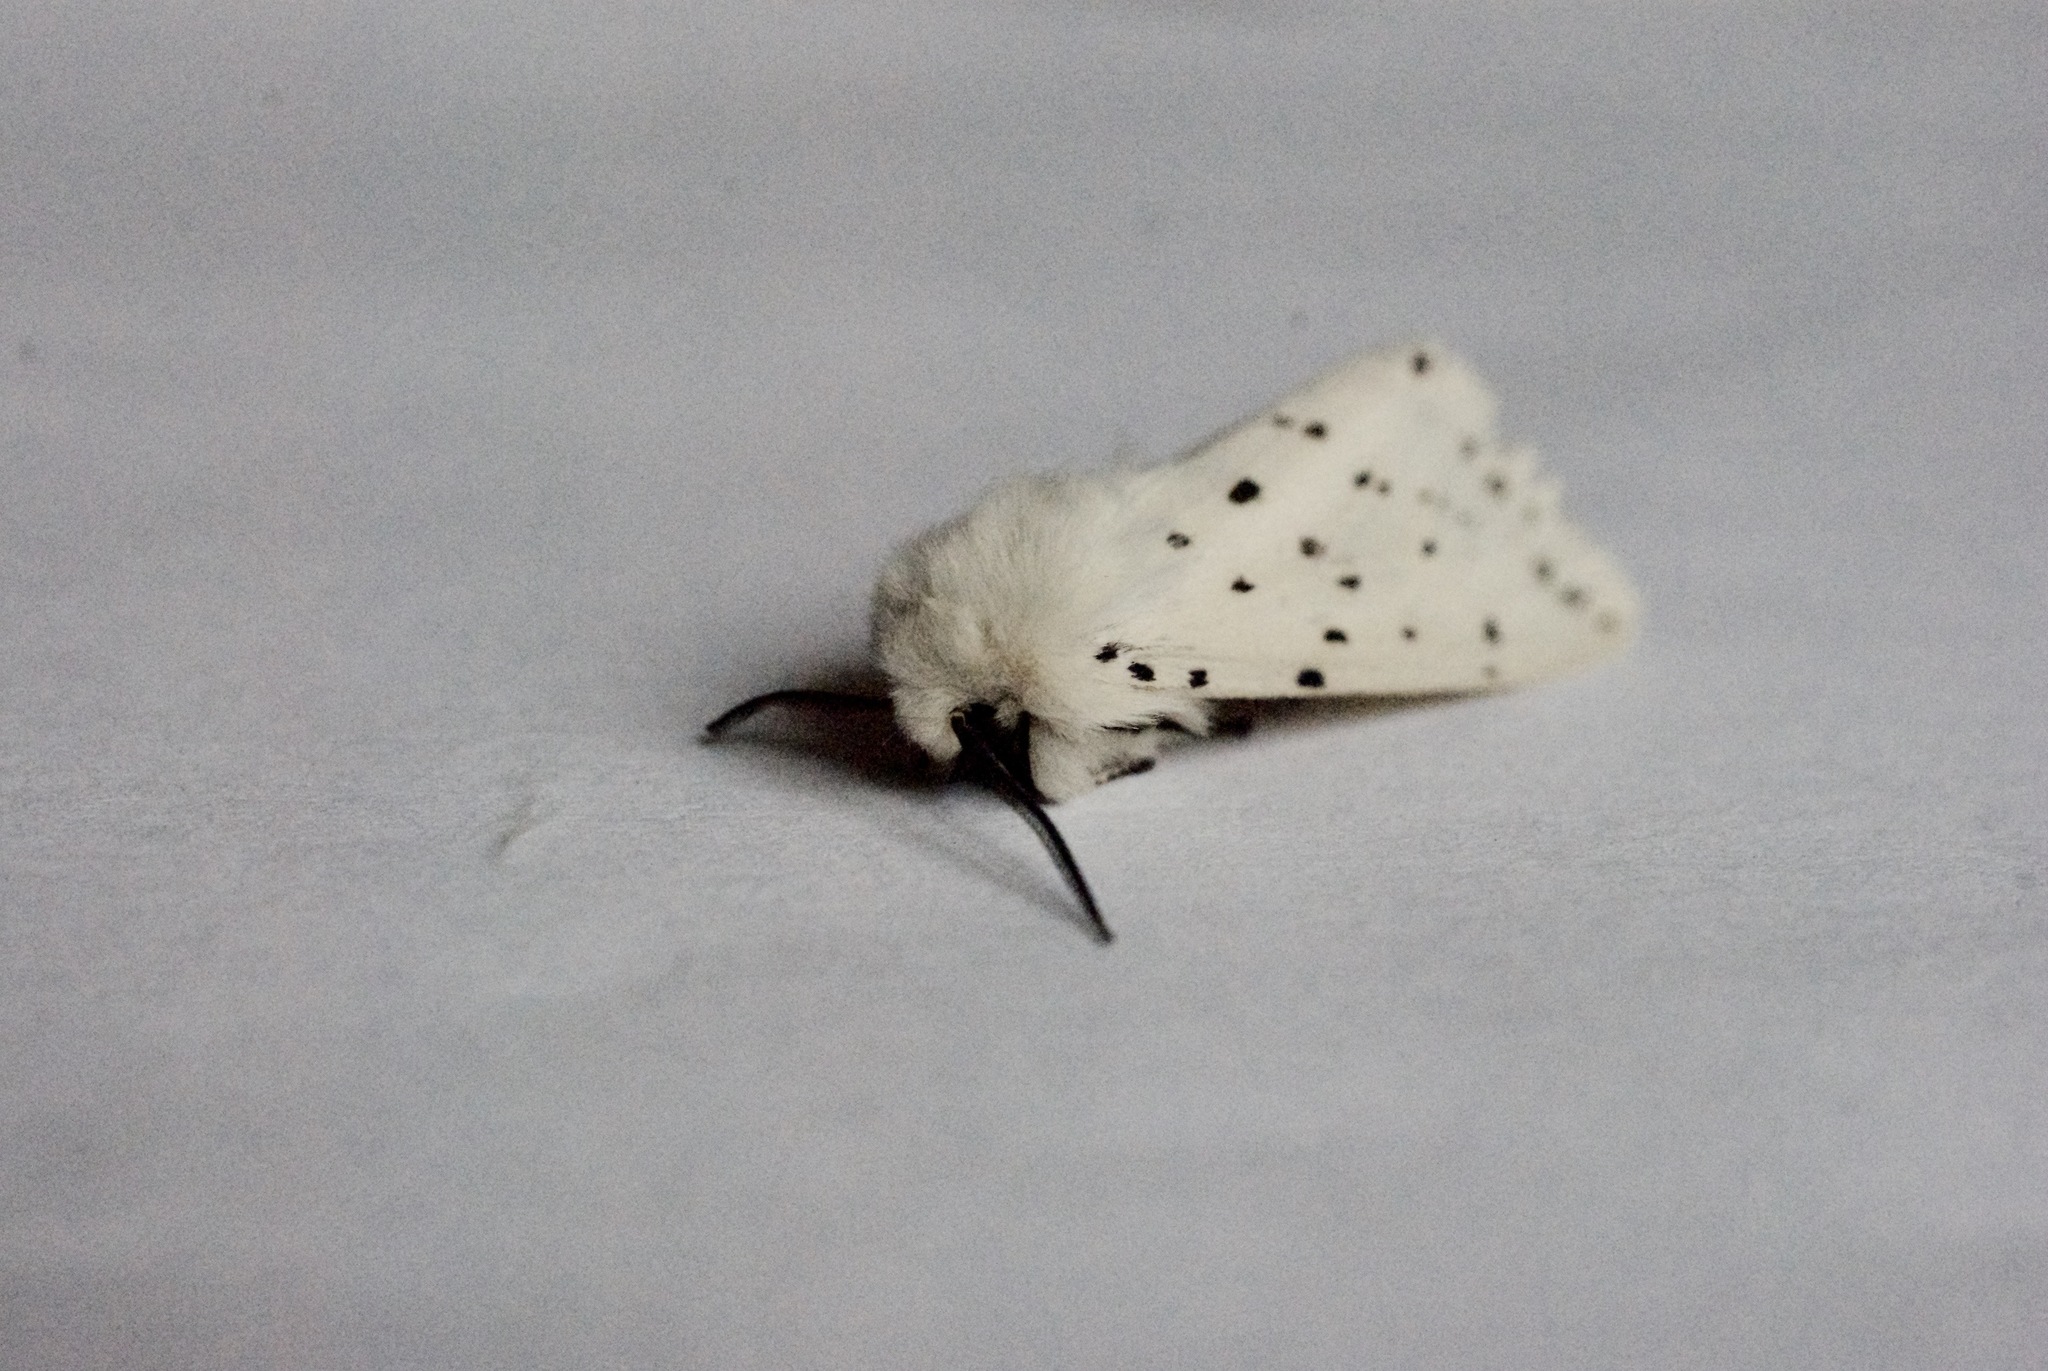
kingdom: Animalia
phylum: Arthropoda
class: Insecta
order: Lepidoptera
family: Erebidae
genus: Spilosoma
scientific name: Spilosoma lubricipeda
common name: White ermine
